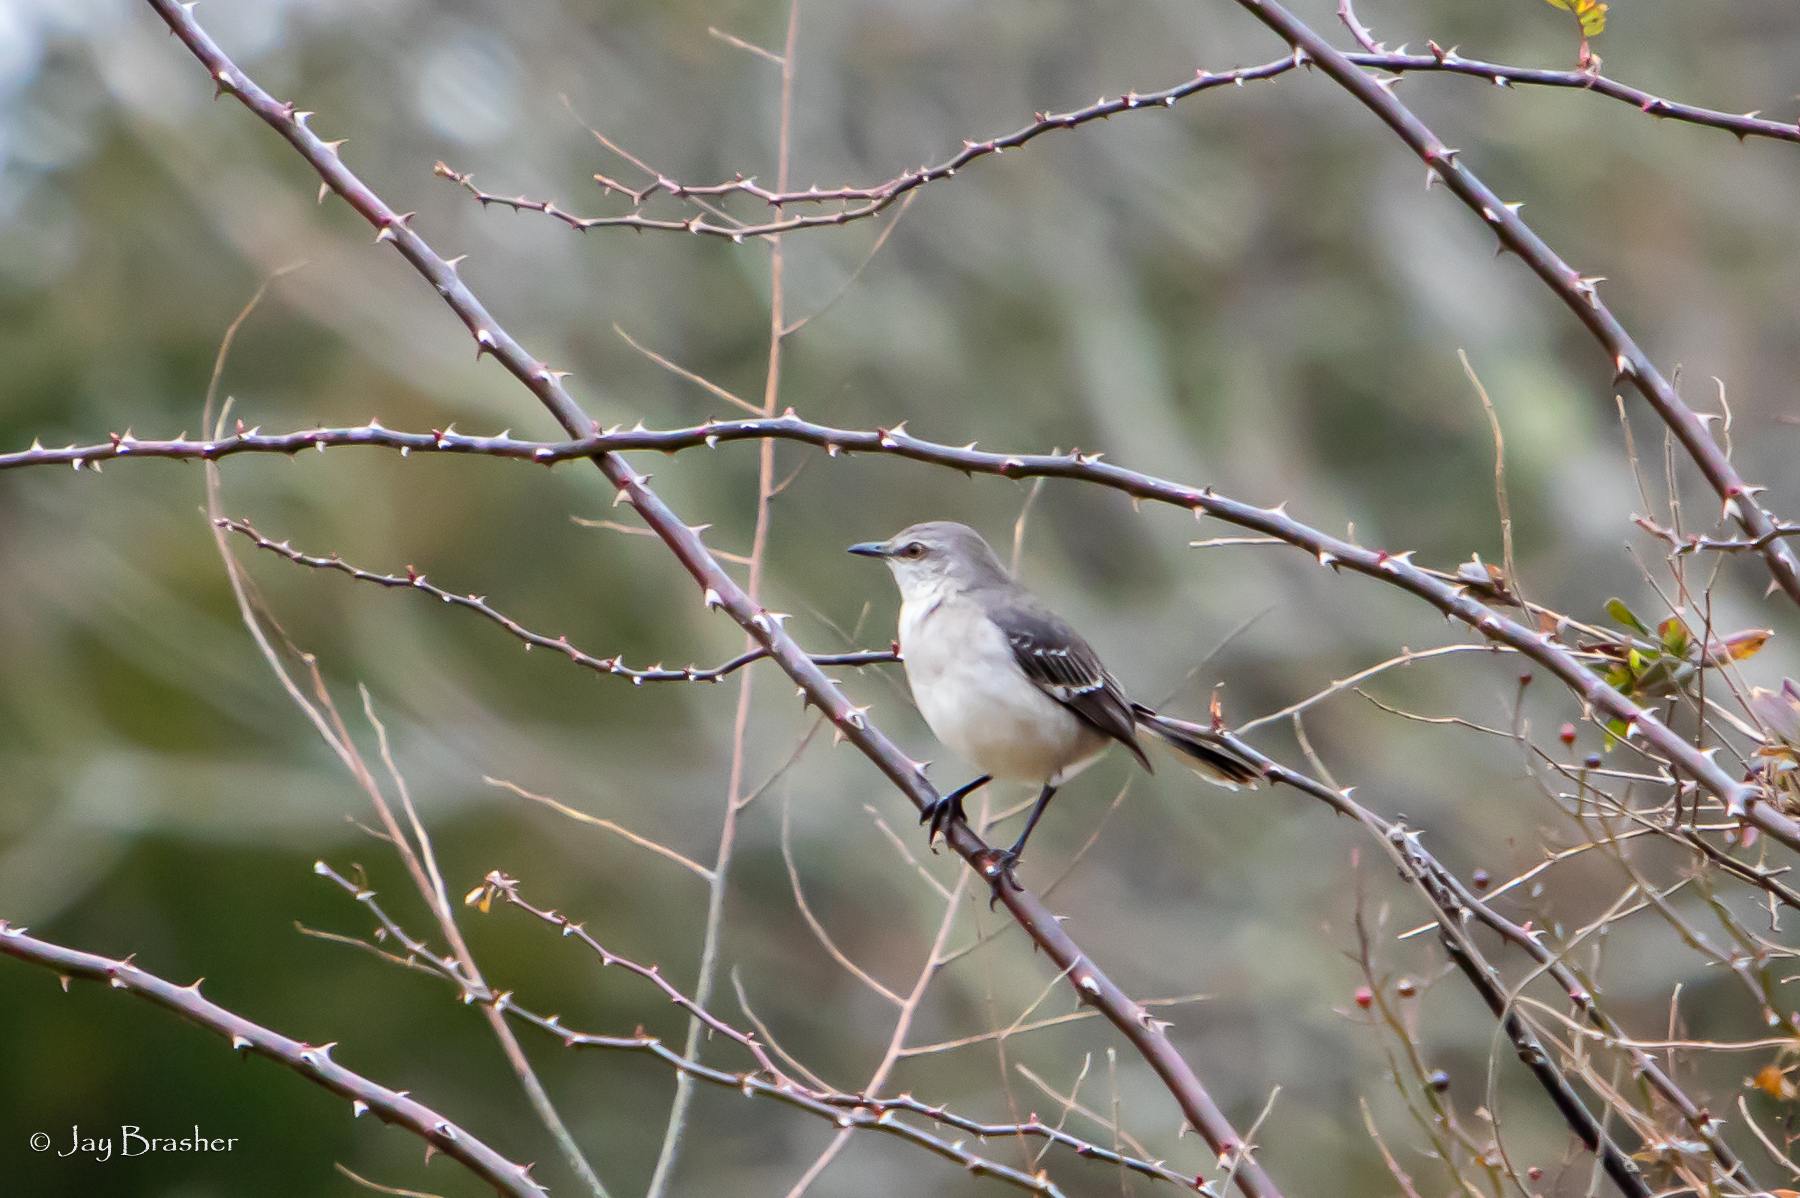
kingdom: Animalia
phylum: Chordata
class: Aves
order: Passeriformes
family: Mimidae
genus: Mimus
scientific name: Mimus polyglottos
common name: Northern mockingbird
